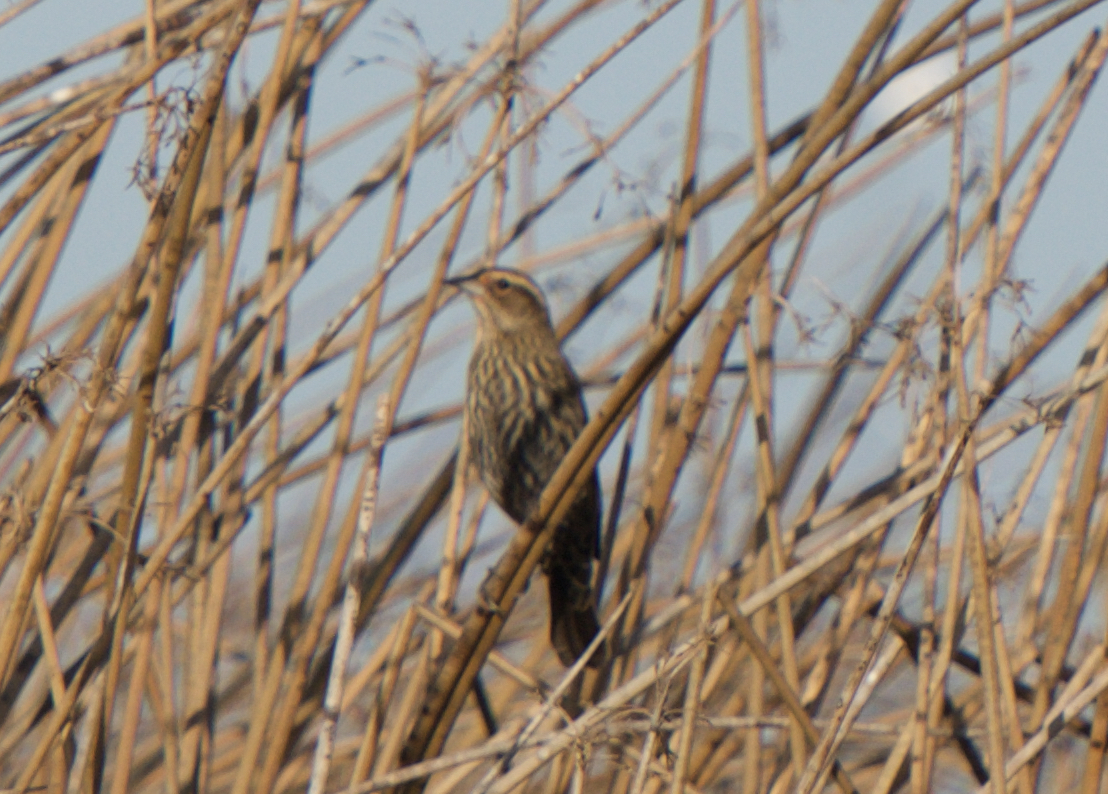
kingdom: Animalia
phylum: Chordata
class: Aves
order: Passeriformes
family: Icteridae
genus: Agelaius
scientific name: Agelaius phoeniceus
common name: Red-winged blackbird
